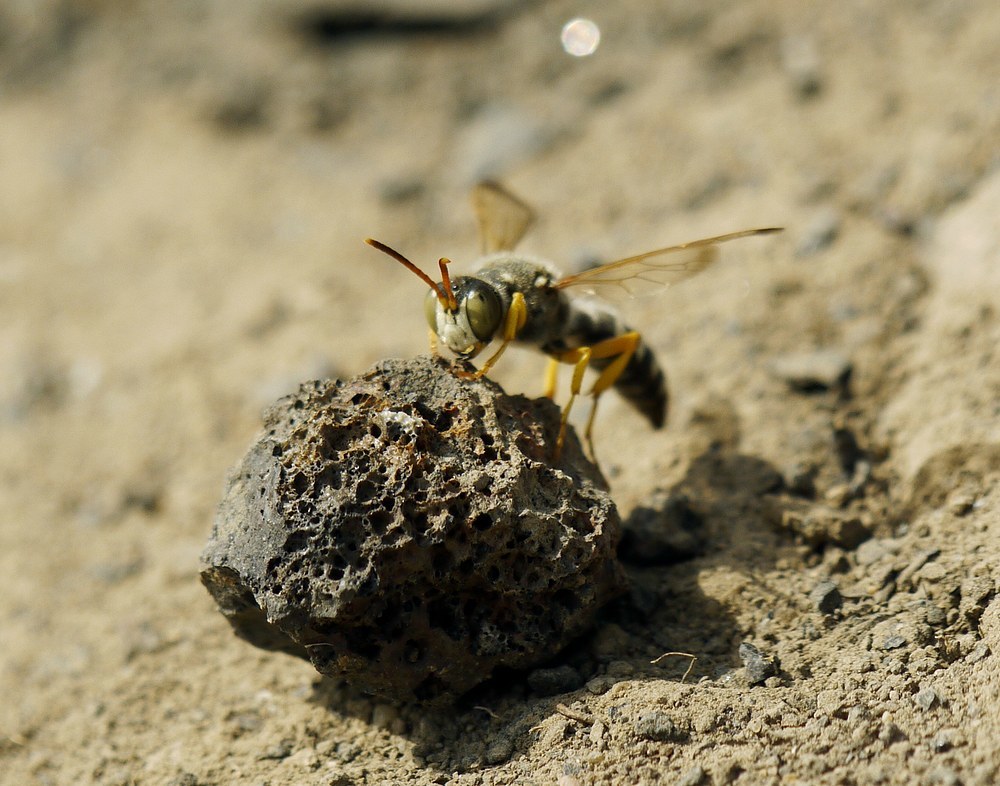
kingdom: Animalia
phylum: Arthropoda
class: Insecta
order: Hymenoptera
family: Crabronidae
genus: Cerceris
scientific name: Cerceris tuberculata
